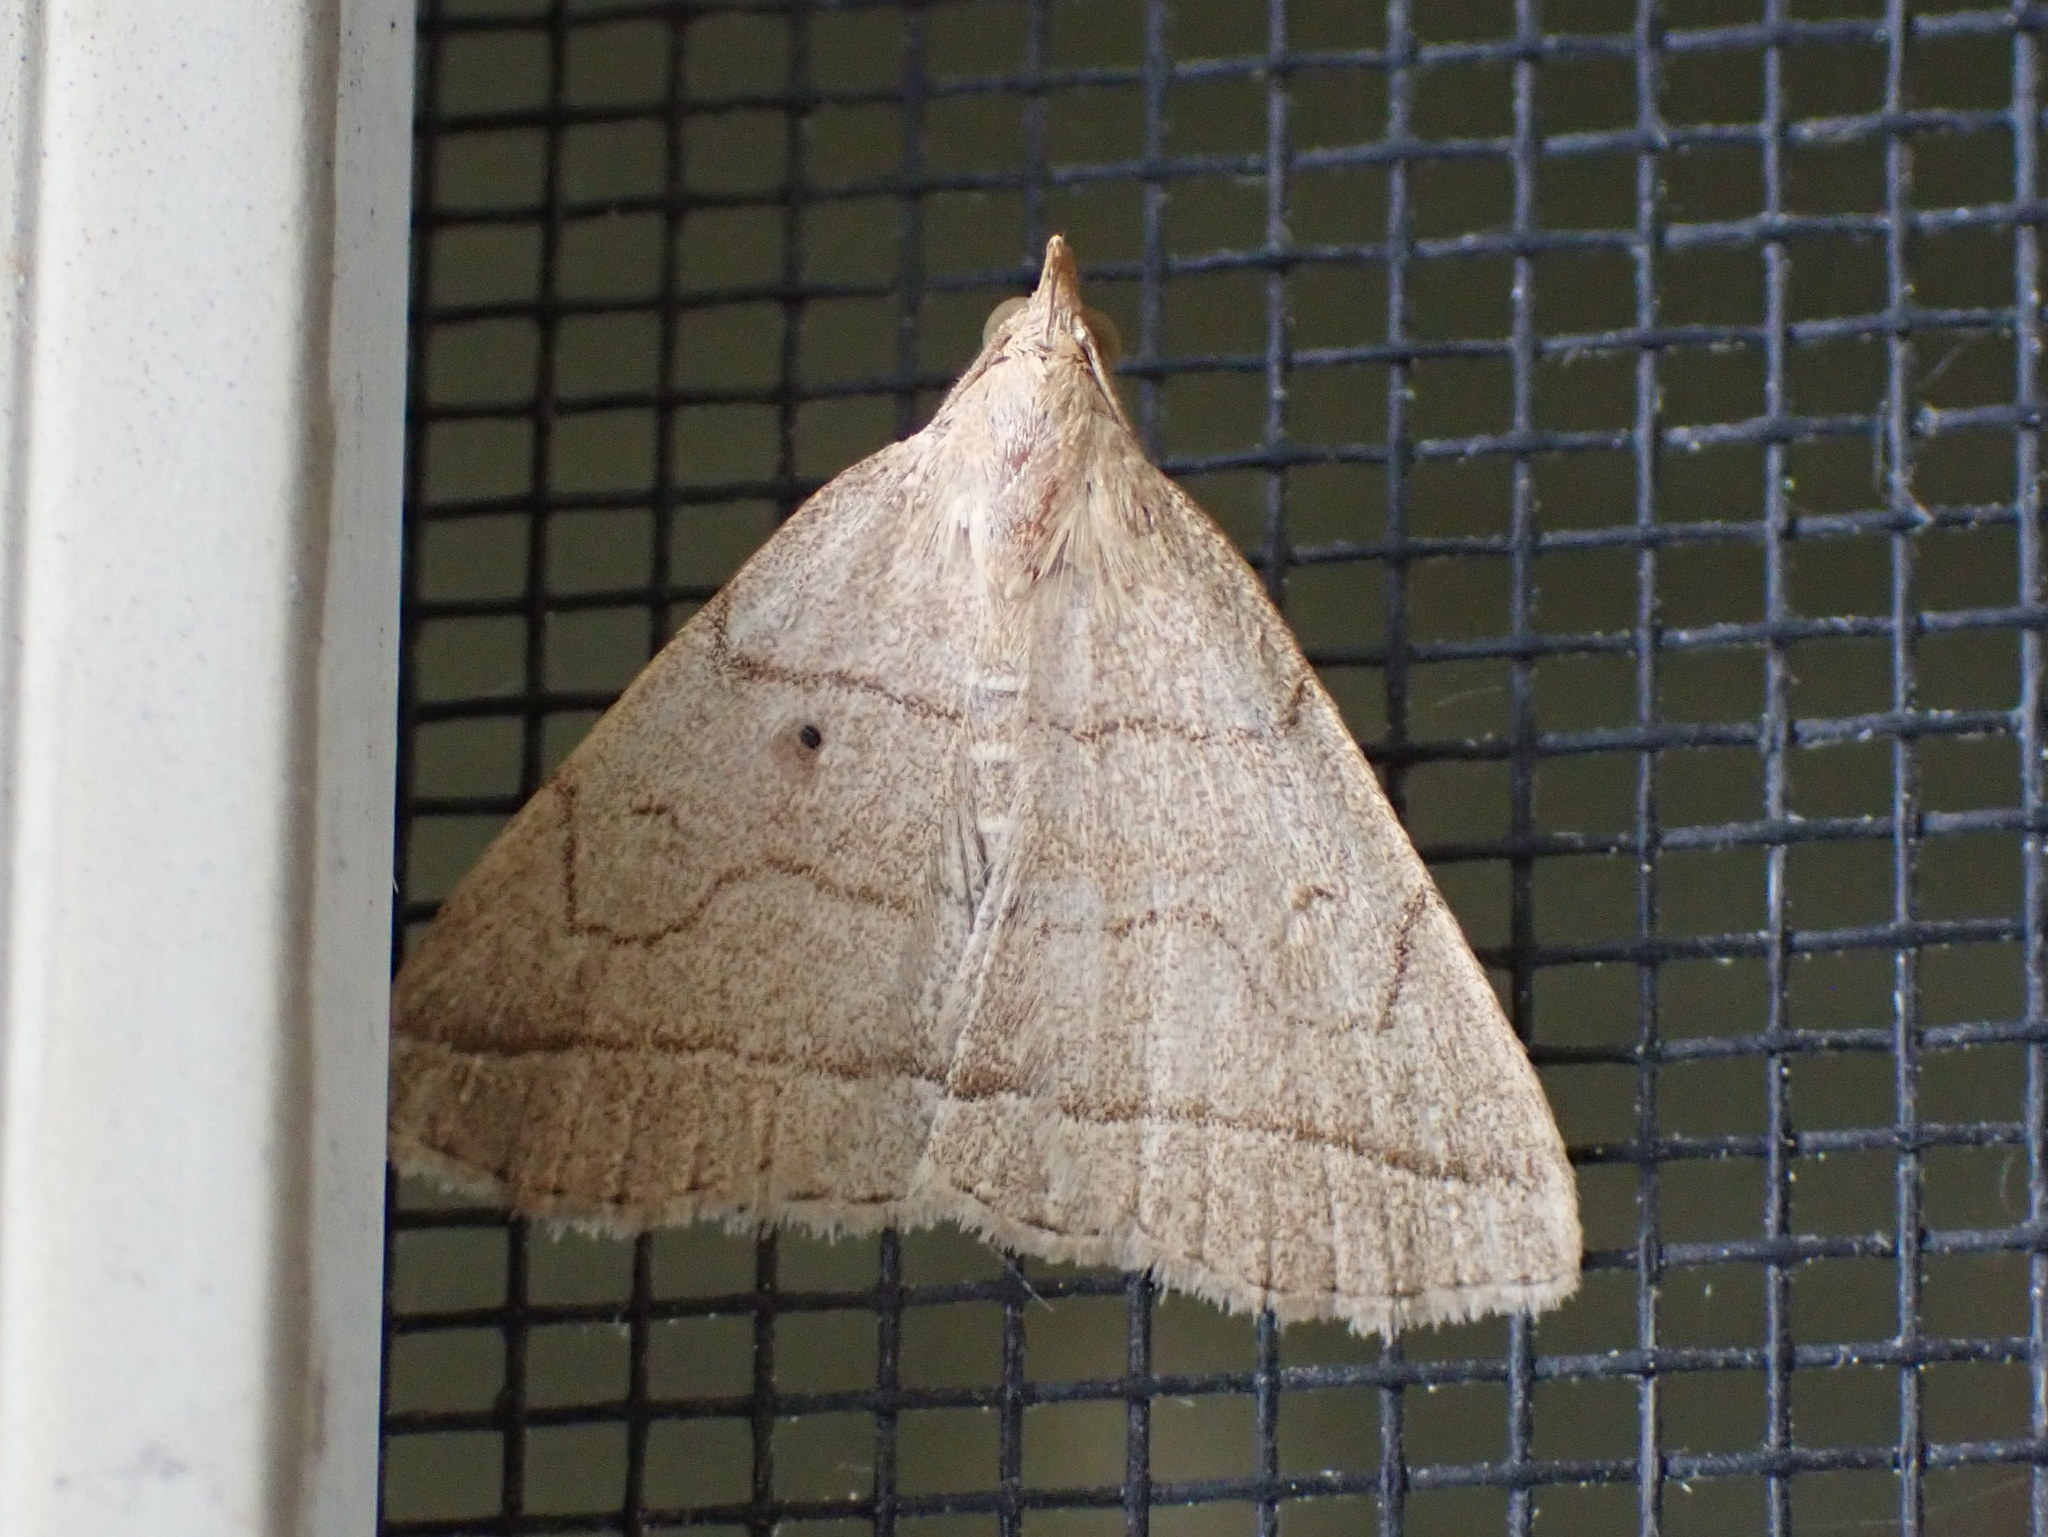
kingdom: Animalia
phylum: Arthropoda
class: Insecta
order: Lepidoptera
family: Erebidae
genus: Zanclognatha
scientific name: Zanclognatha cruralis
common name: Early fan-foot
